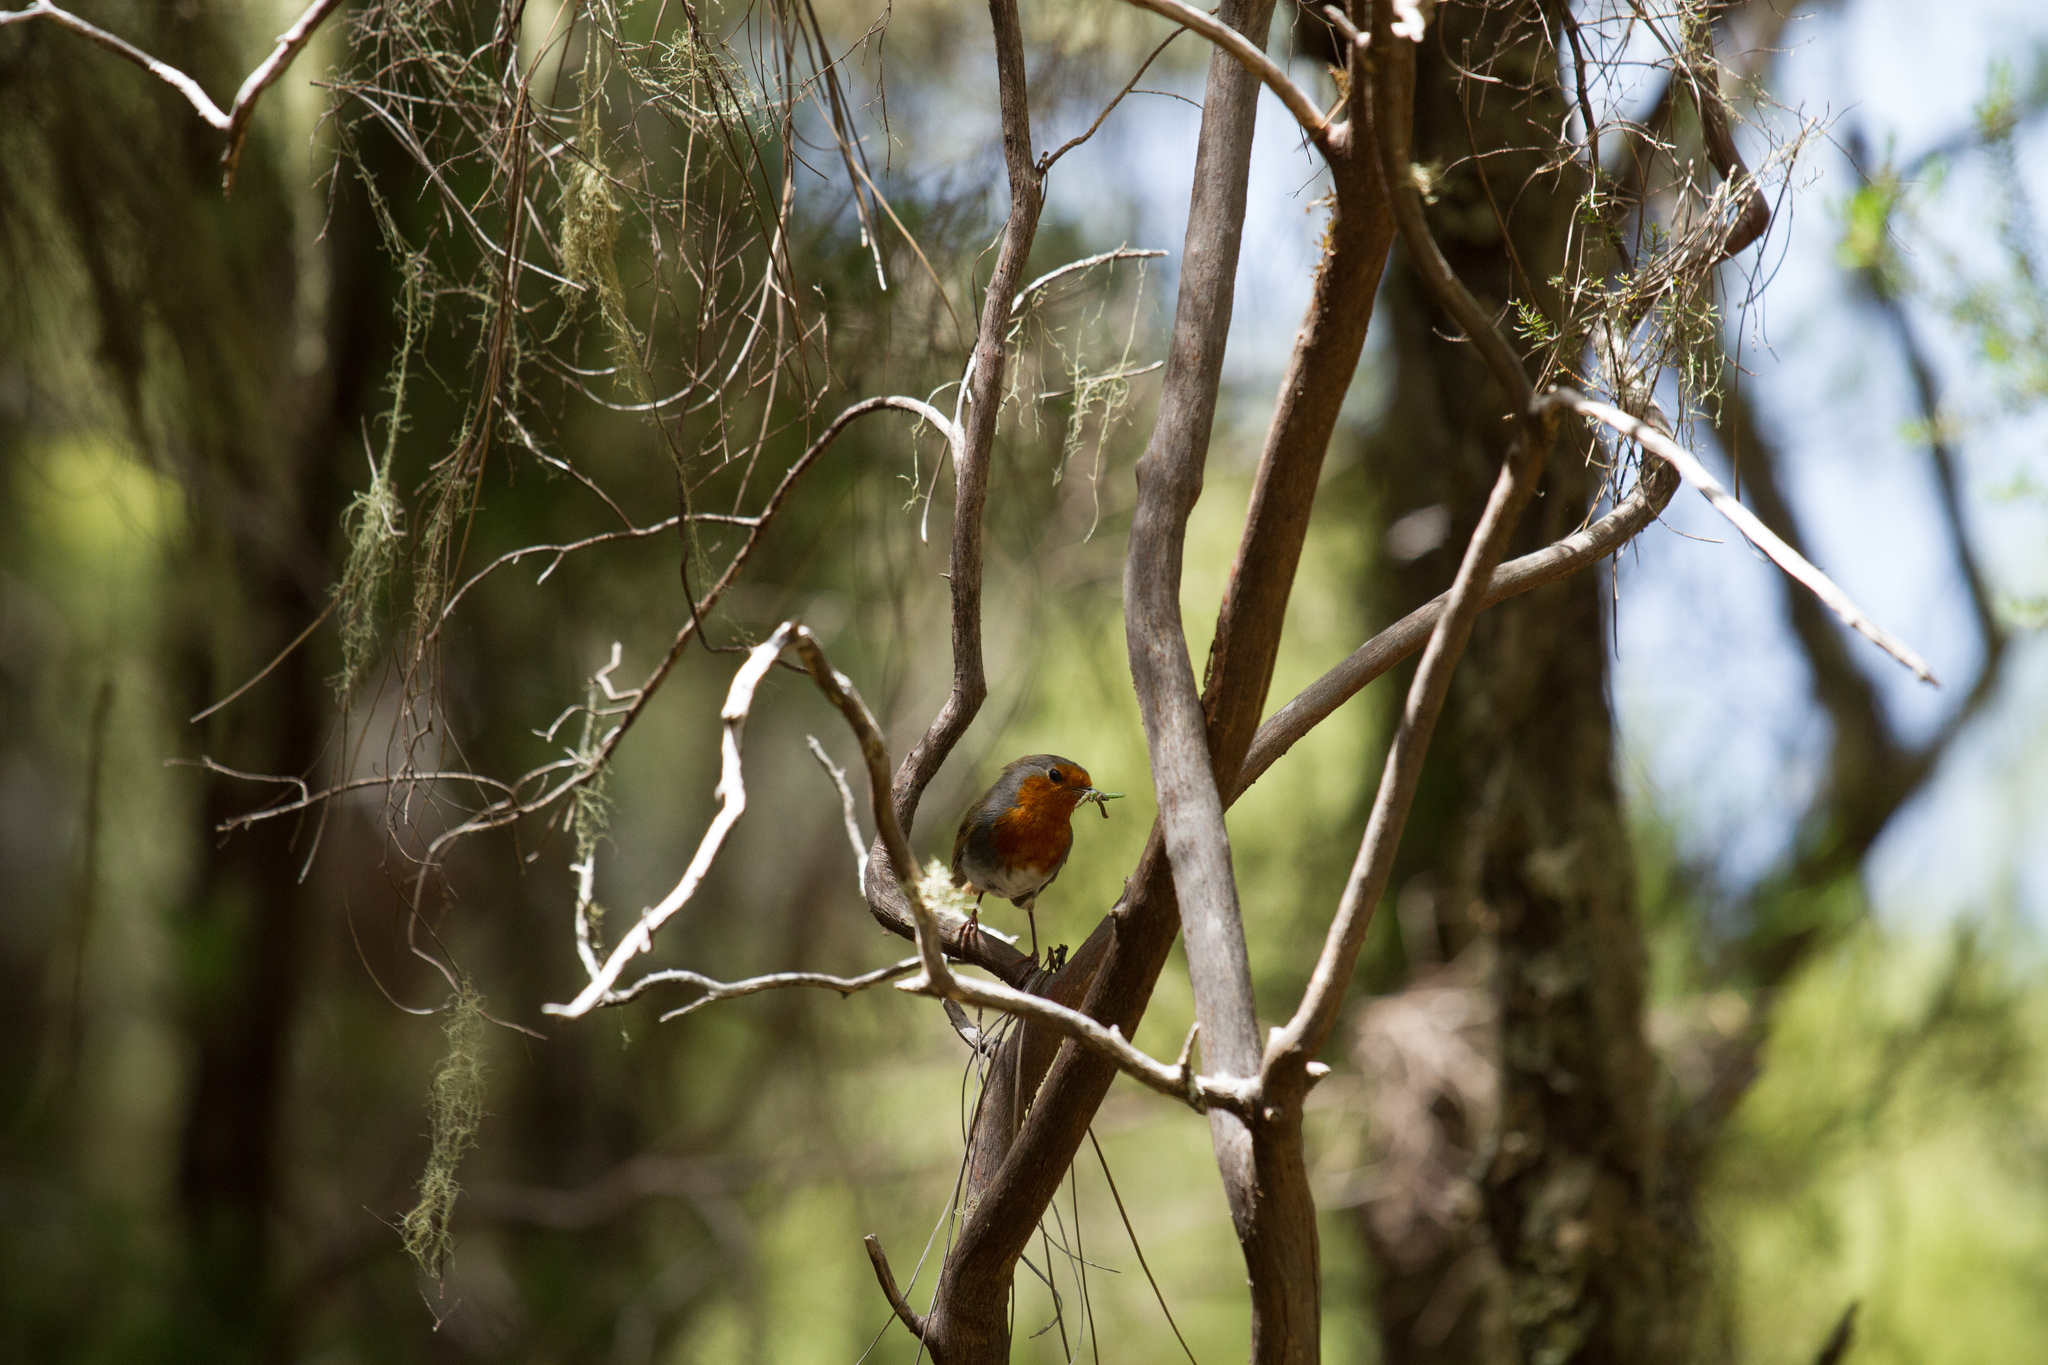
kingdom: Animalia
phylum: Chordata
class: Aves
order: Passeriformes
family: Muscicapidae
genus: Erithacus
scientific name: Erithacus rubecula
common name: European robin
